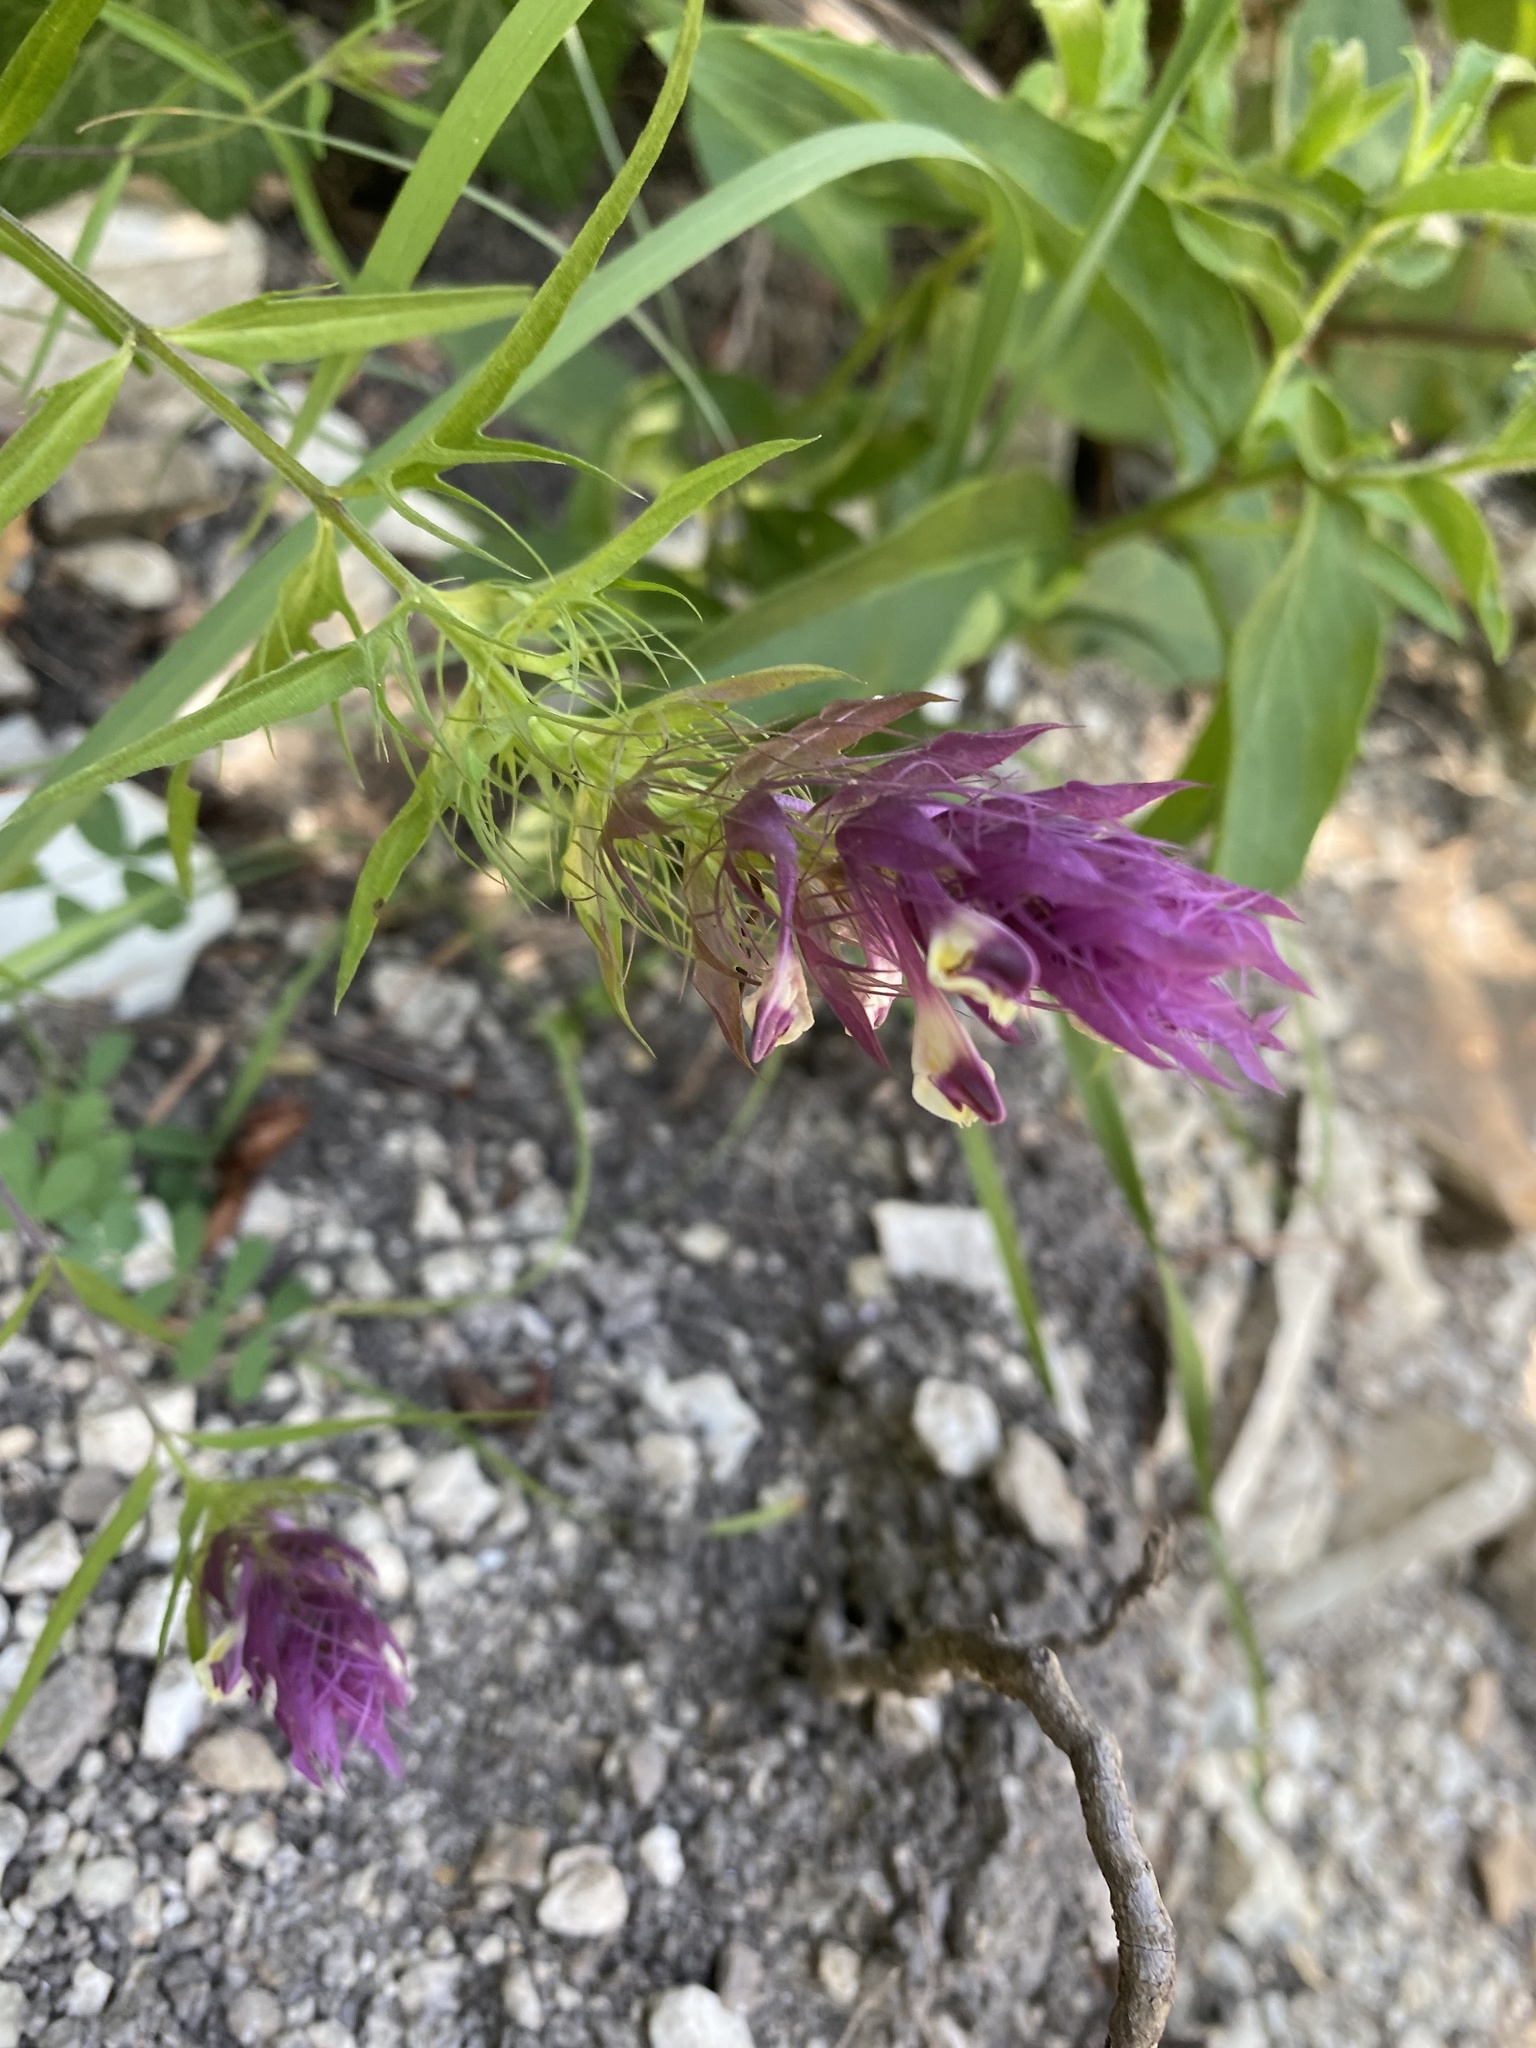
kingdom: Plantae
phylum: Tracheophyta
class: Magnoliopsida
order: Lamiales
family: Orobanchaceae
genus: Melampyrum
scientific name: Melampyrum arvense
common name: Field cow-wheat
